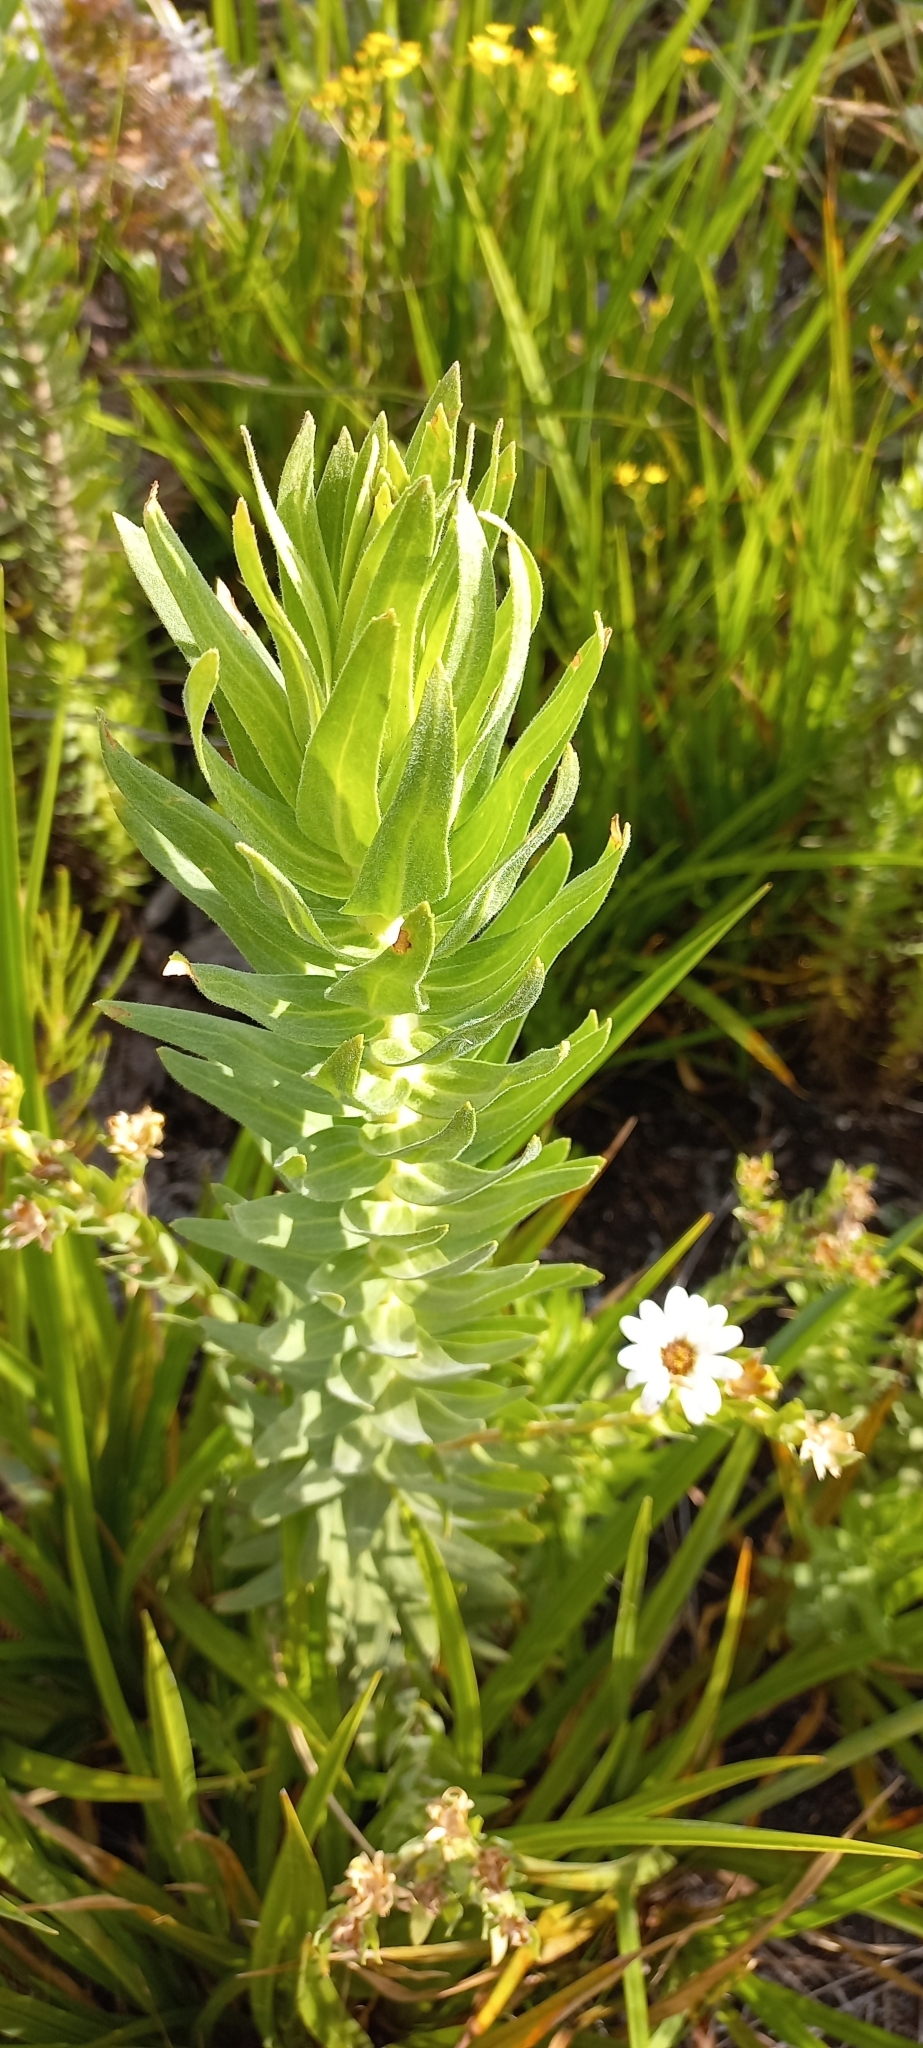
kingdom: Plantae
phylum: Tracheophyta
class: Magnoliopsida
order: Asterales
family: Asteraceae
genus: Osmitopsis
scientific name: Osmitopsis asteriscoides
